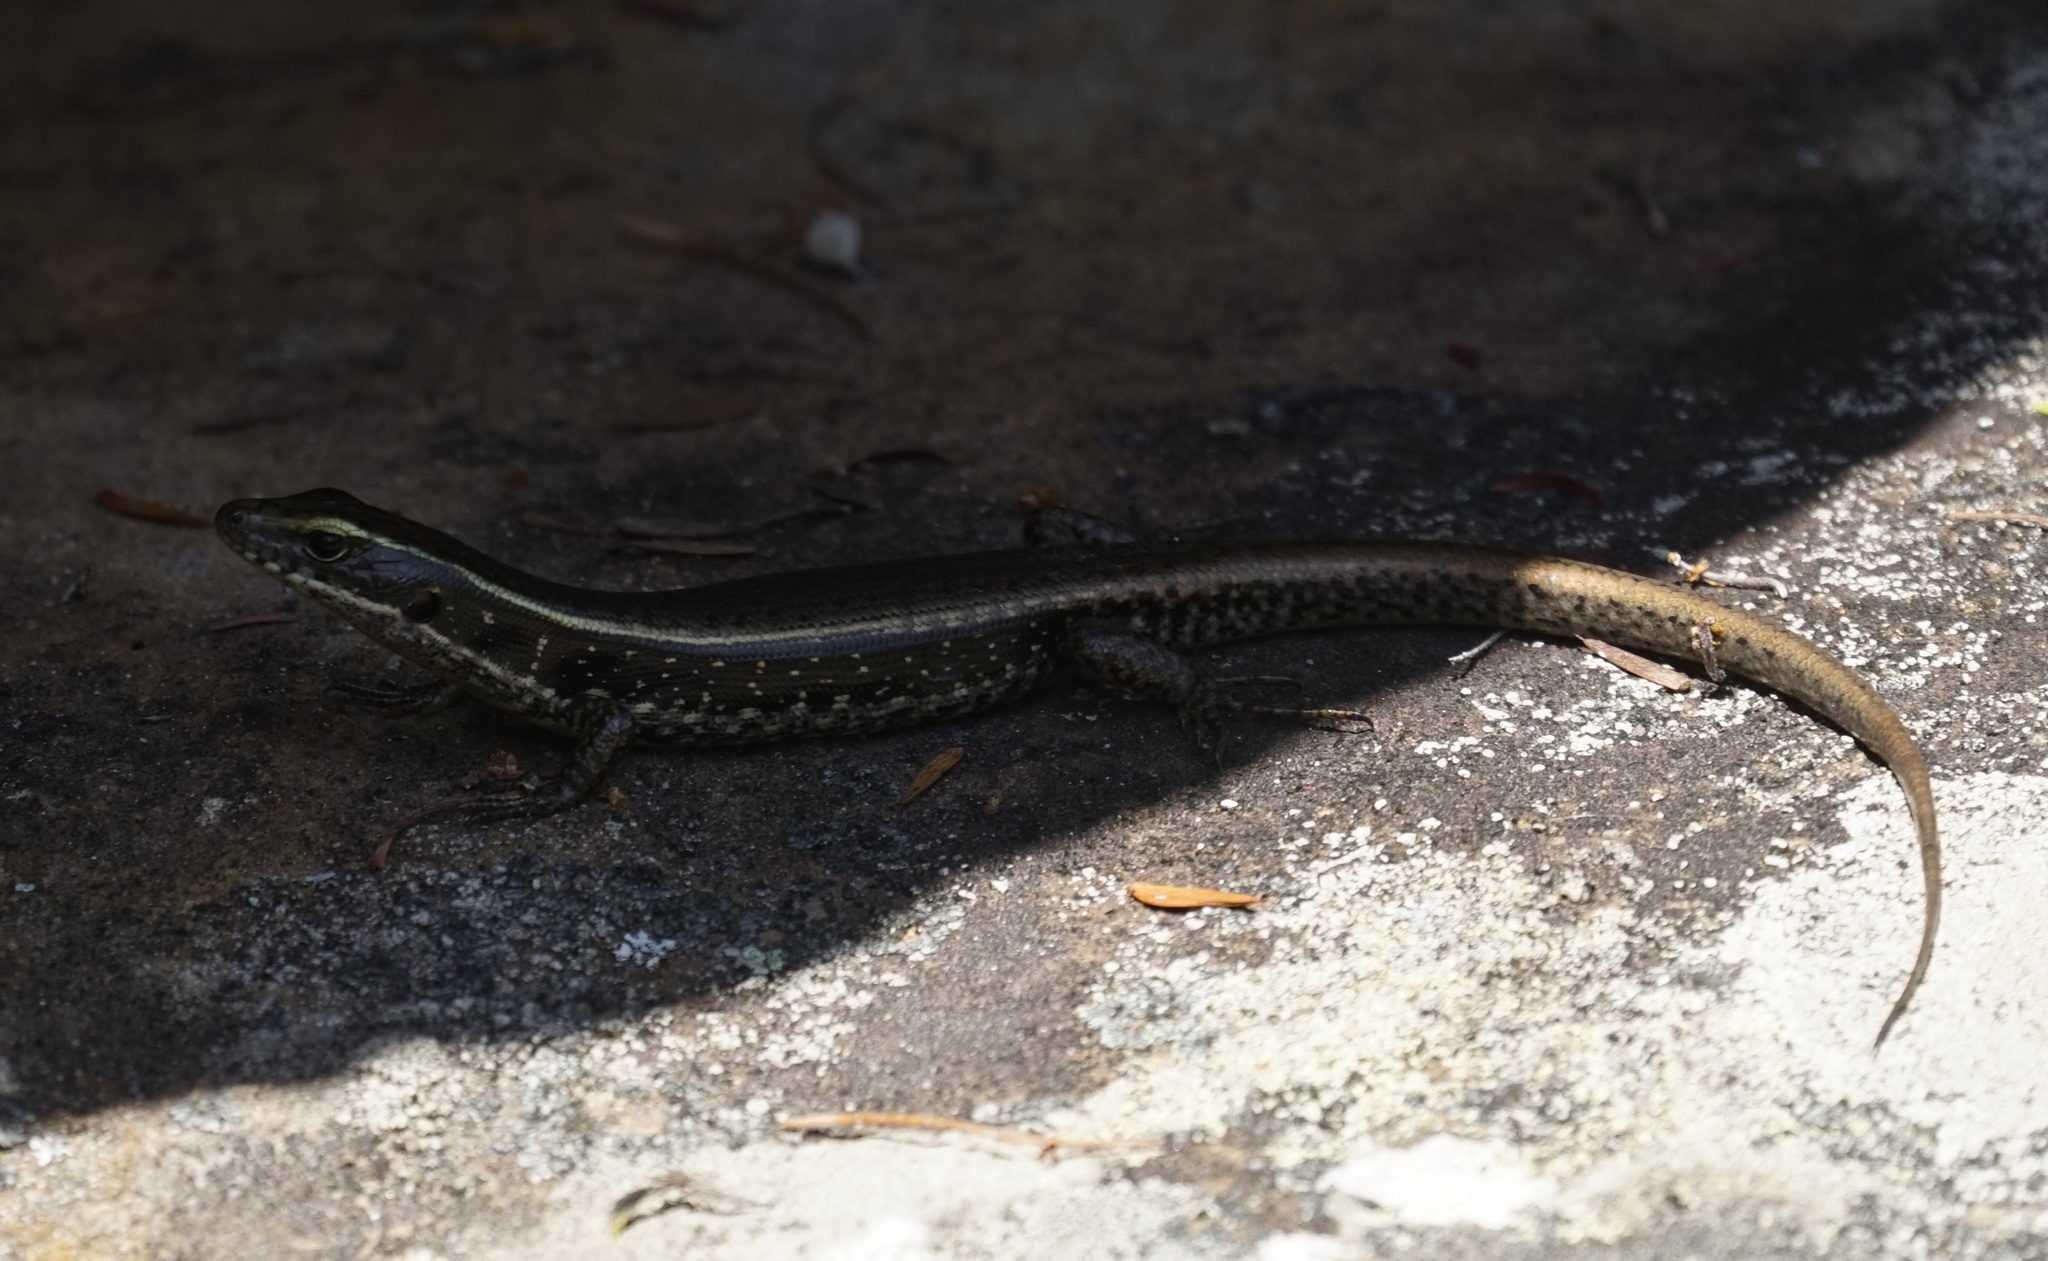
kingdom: Animalia
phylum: Chordata
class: Squamata
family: Scincidae
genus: Eulamprus
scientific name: Eulamprus quoyii
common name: Eastern water skink
